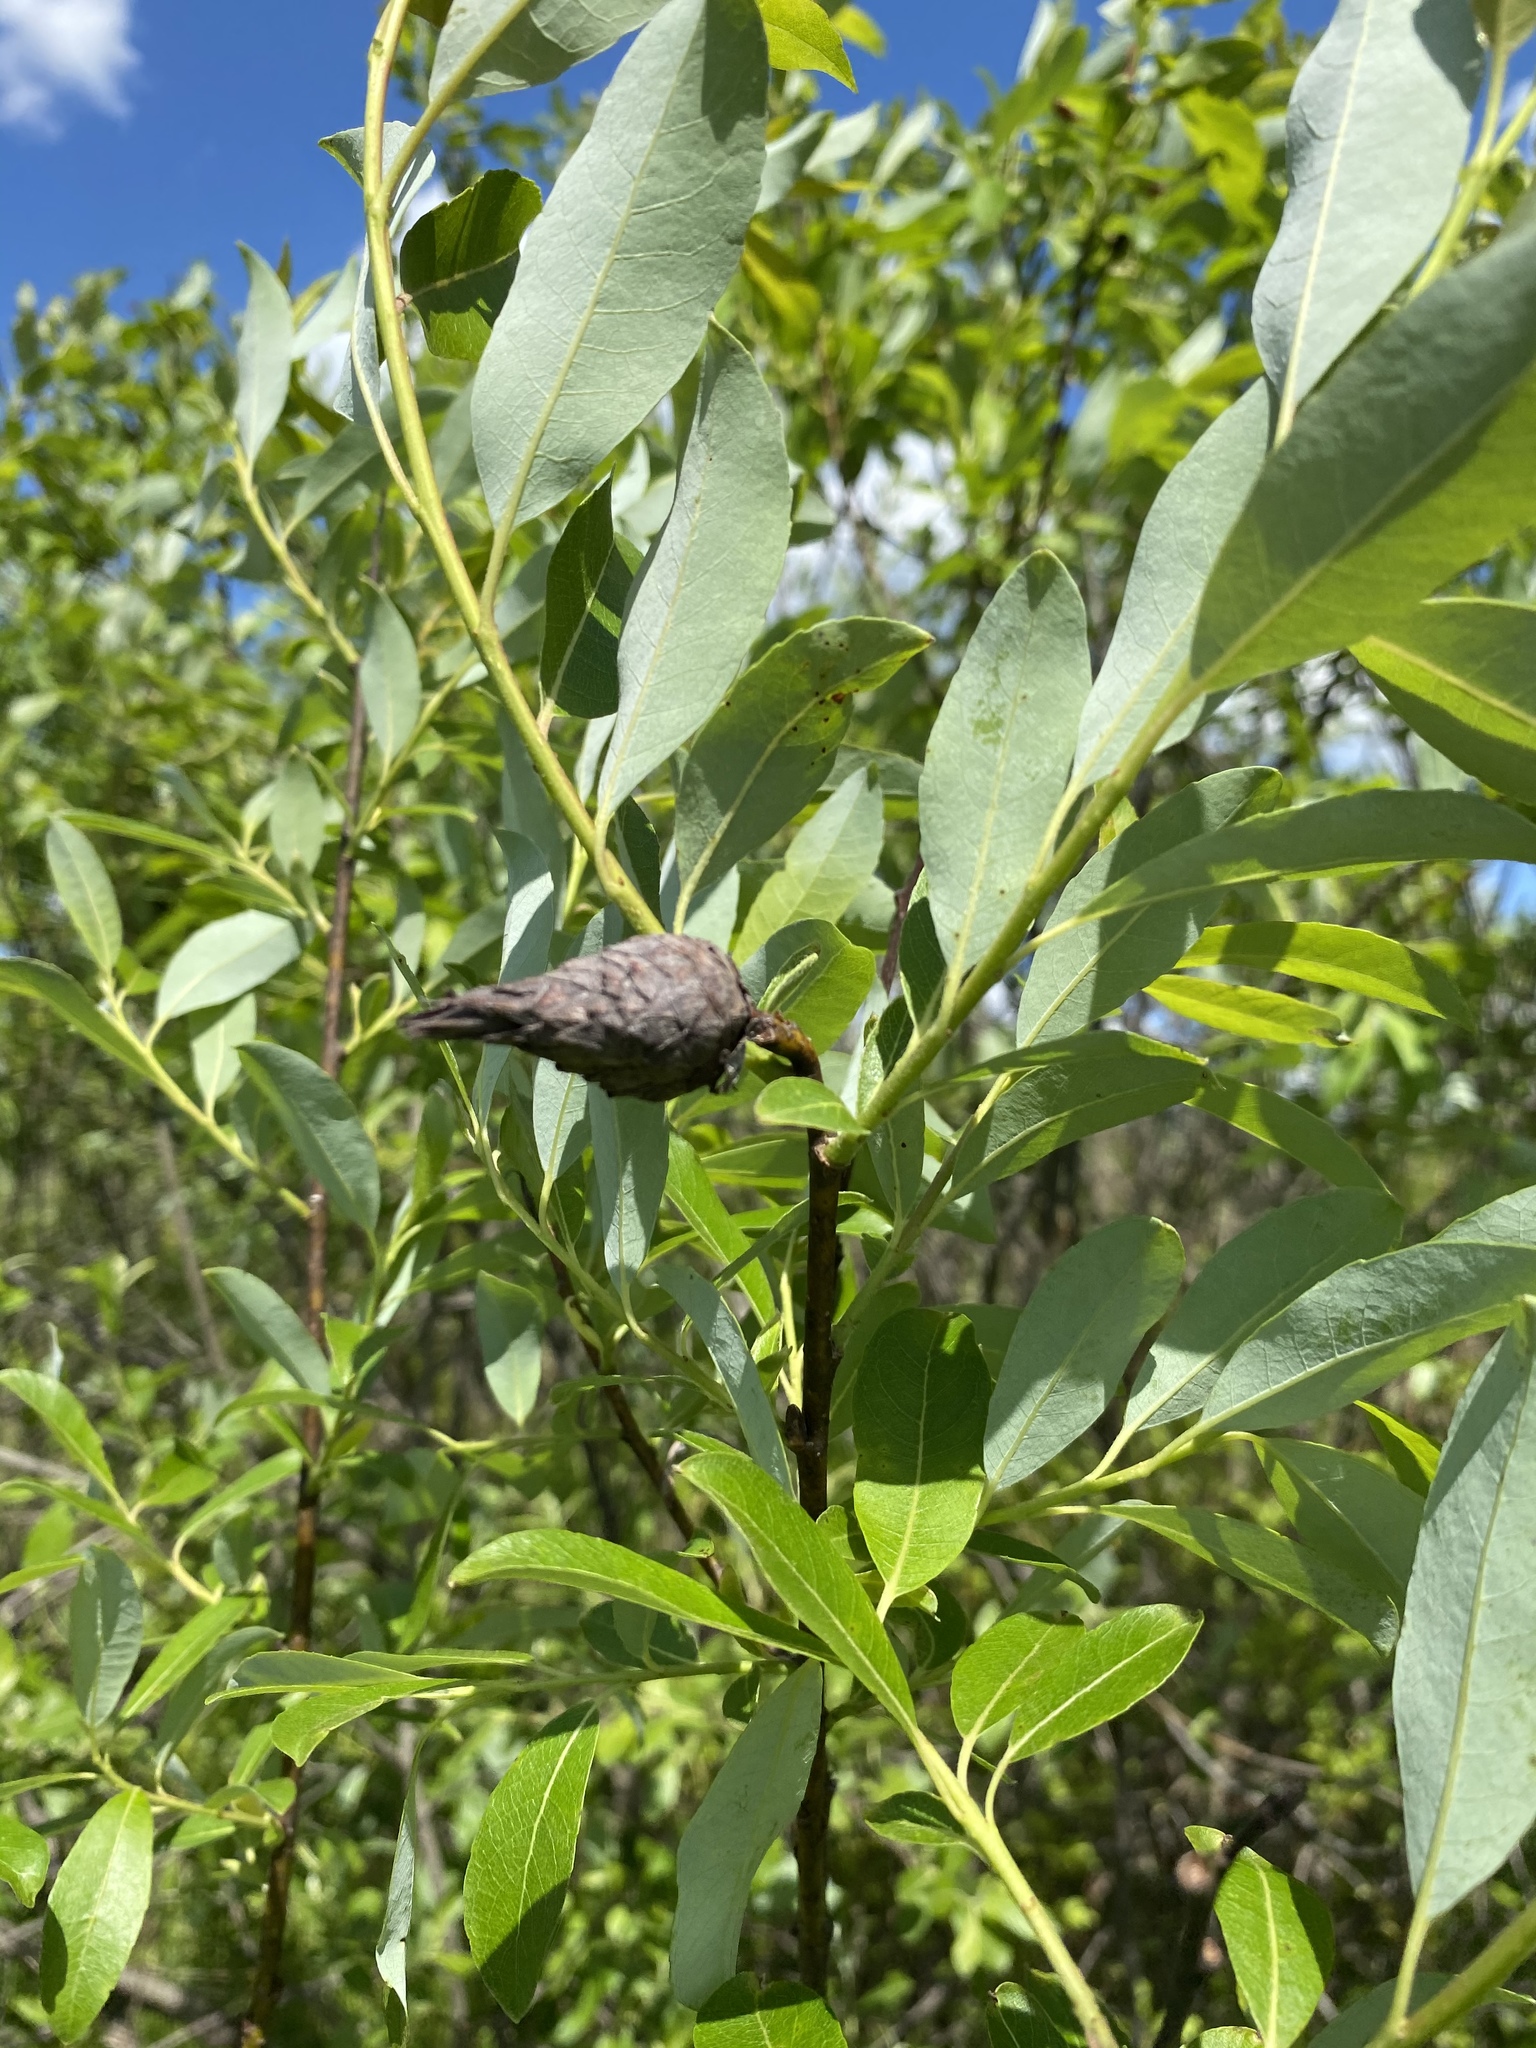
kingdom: Animalia
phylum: Arthropoda
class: Insecta
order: Diptera
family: Cecidomyiidae
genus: Rabdophaga
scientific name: Rabdophaga strobiloides
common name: Willow pinecone gall midge
